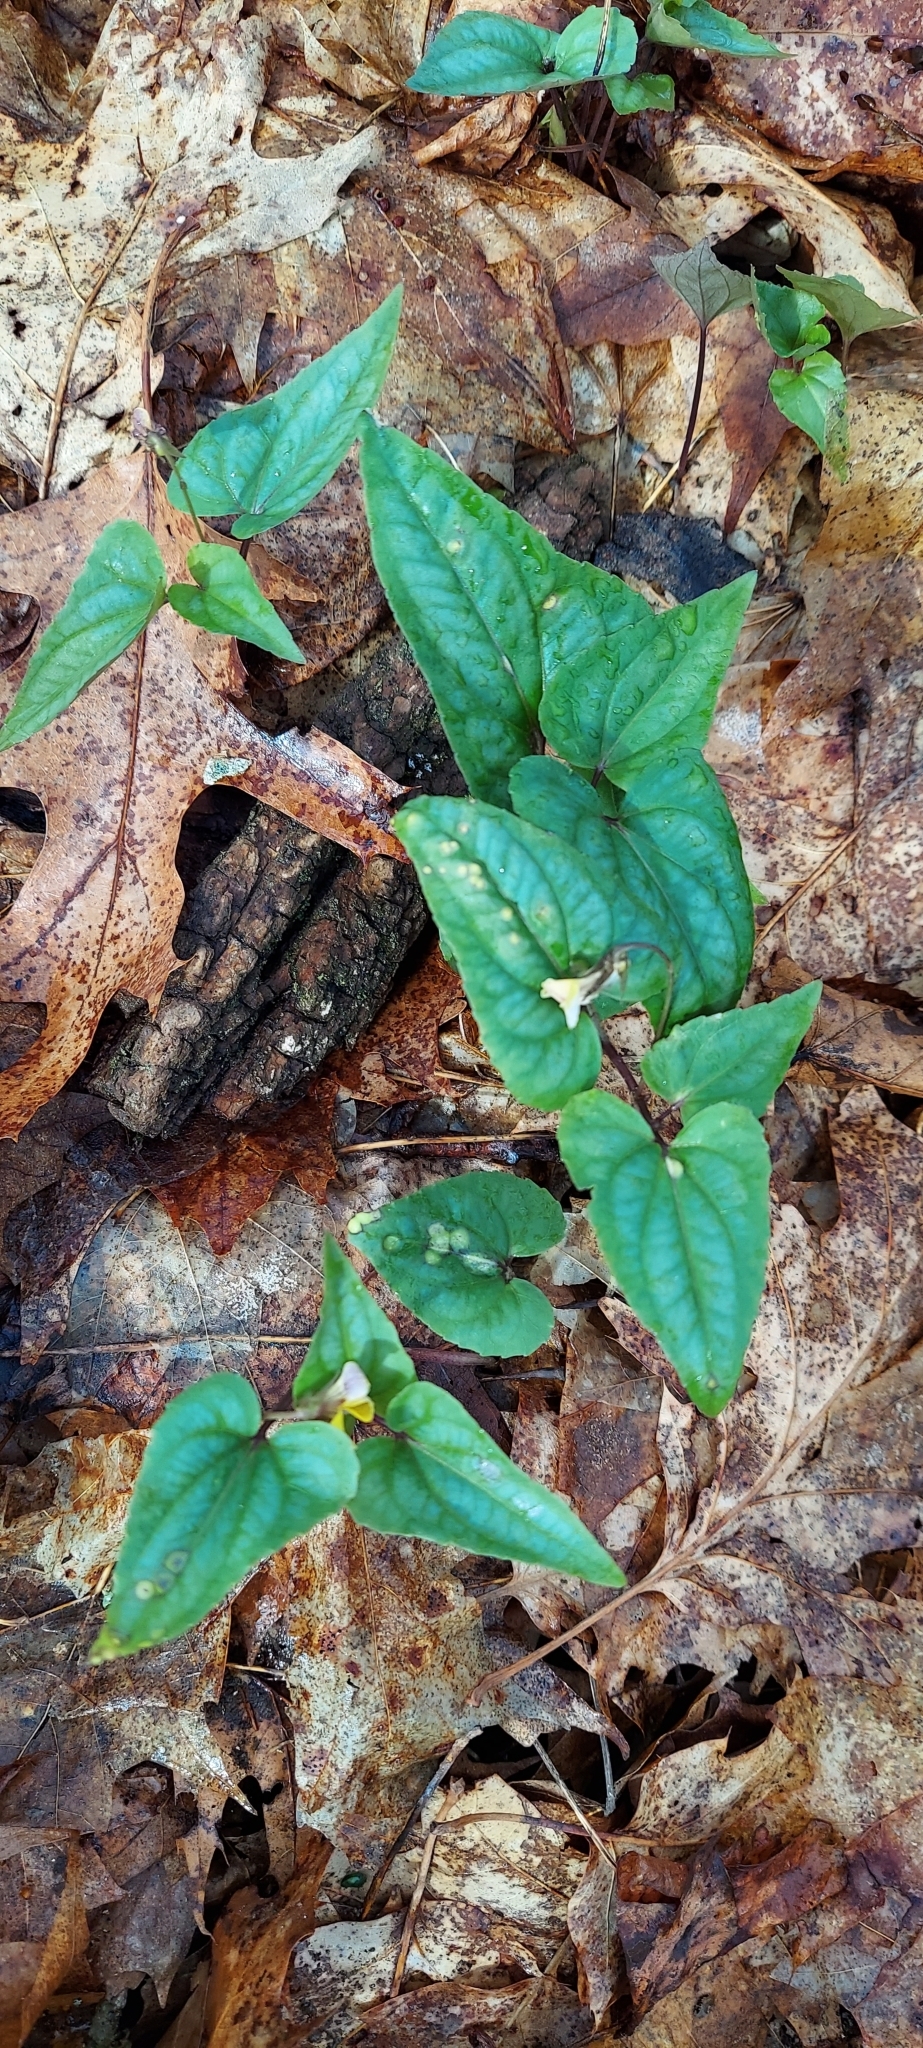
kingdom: Plantae
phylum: Tracheophyta
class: Magnoliopsida
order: Malpighiales
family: Violaceae
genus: Viola
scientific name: Viola hastata
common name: Spear-leaf violet
